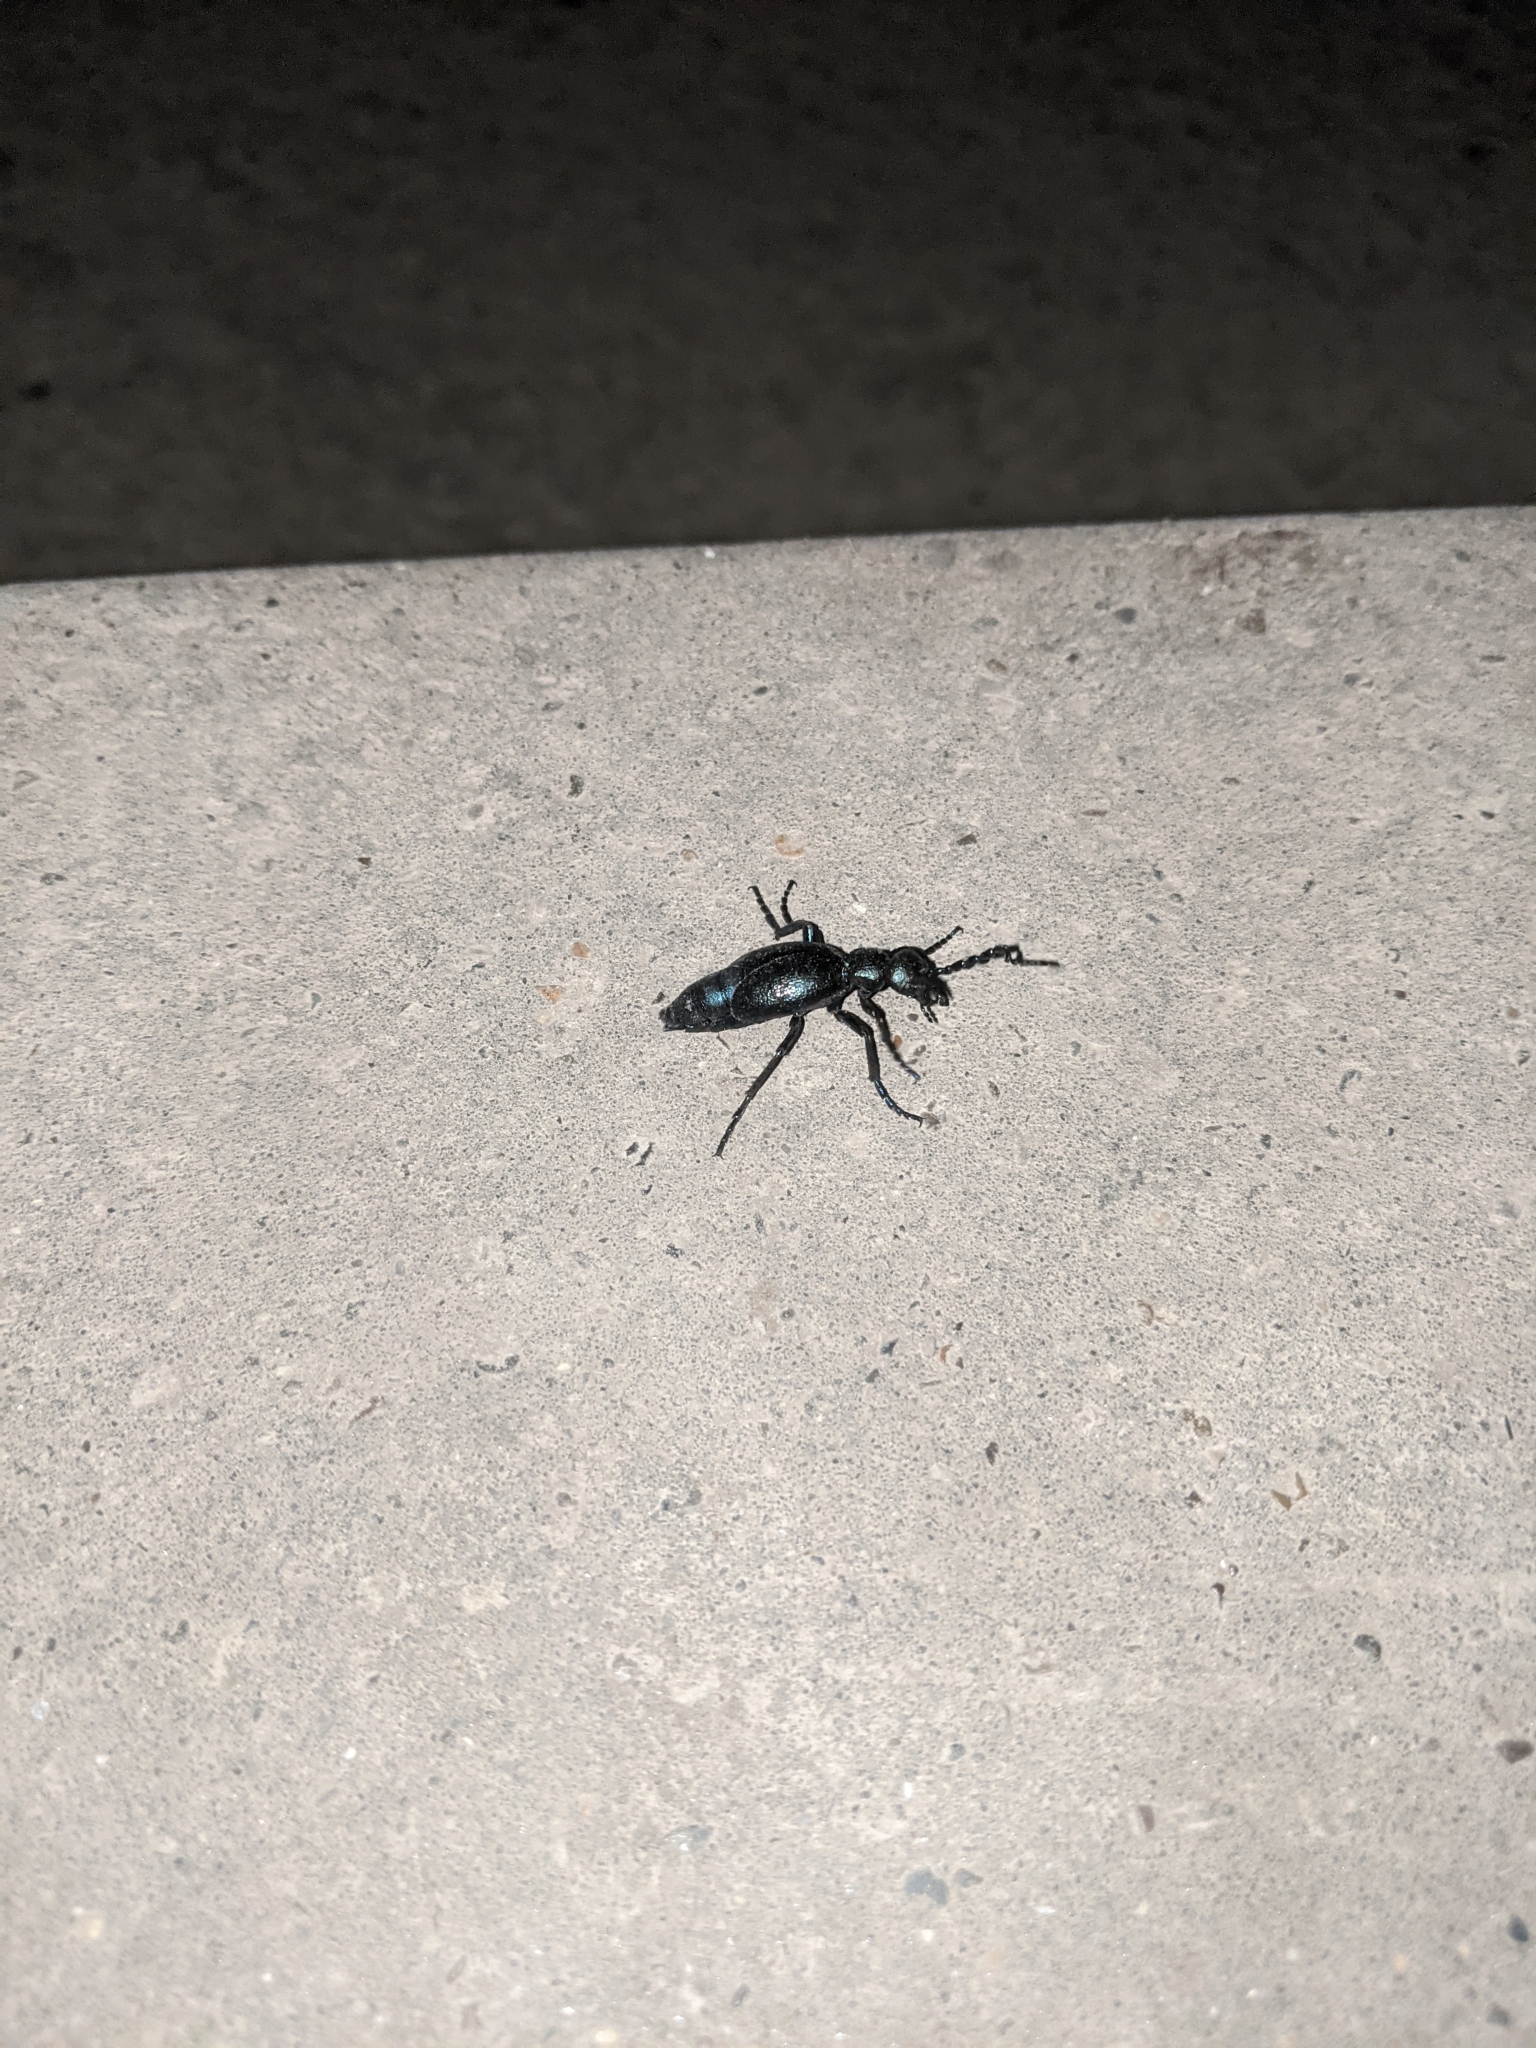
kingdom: Animalia
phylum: Arthropoda
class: Insecta
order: Coleoptera
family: Meloidae
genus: Meloe
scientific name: Meloe proscarabaeus
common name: Black oil-beetle
